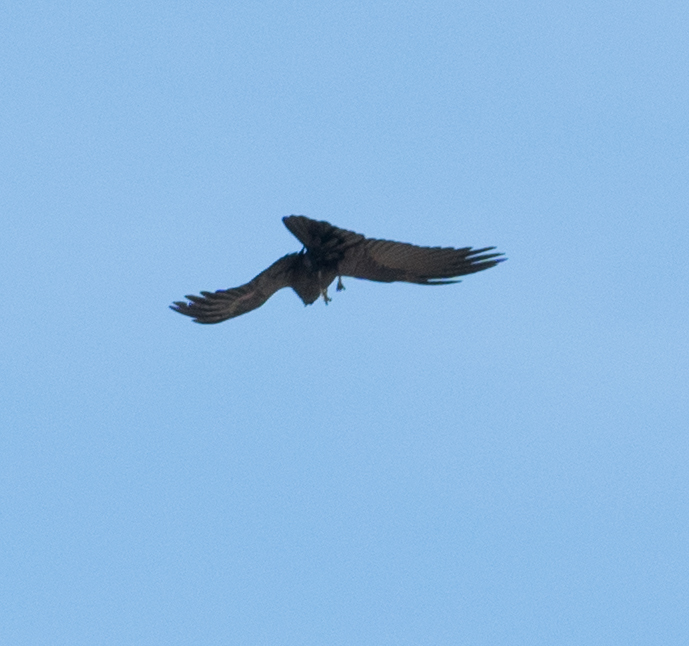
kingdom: Animalia
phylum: Chordata
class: Aves
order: Passeriformes
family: Corvidae
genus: Corvus
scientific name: Corvus corax
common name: Common raven
